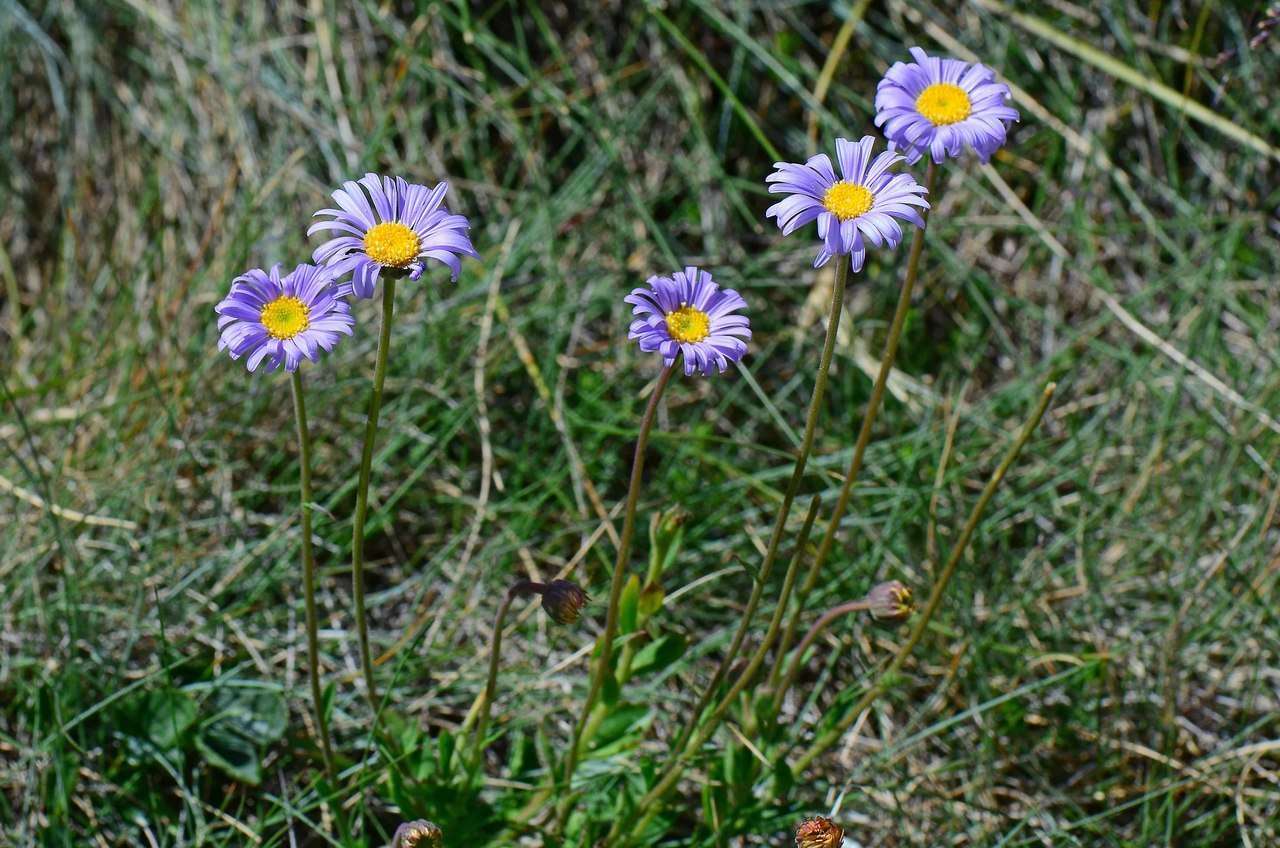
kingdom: Plantae
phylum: Tracheophyta
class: Magnoliopsida
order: Asterales
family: Asteraceae
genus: Brachyscome
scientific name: Brachyscome spathulata
